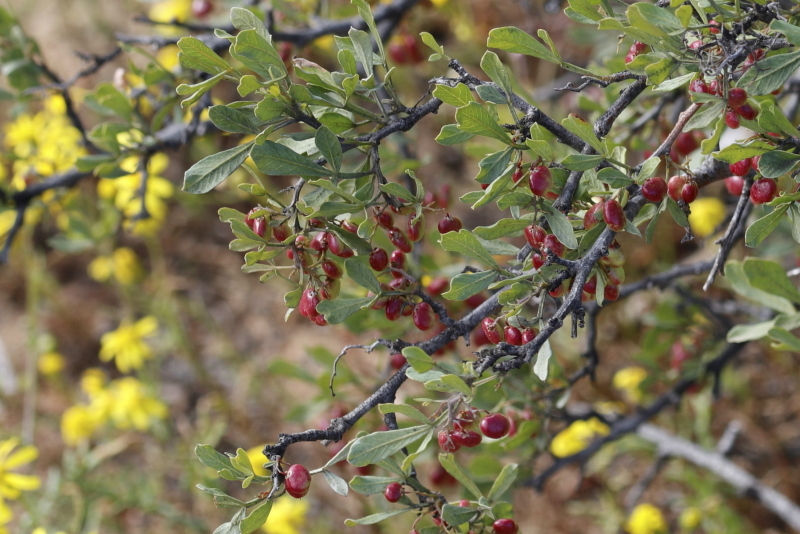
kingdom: Plantae
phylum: Tracheophyta
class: Magnoliopsida
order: Sapindales
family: Anacardiaceae
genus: Searsia
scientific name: Searsia undulata
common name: Namaqua kunibush
